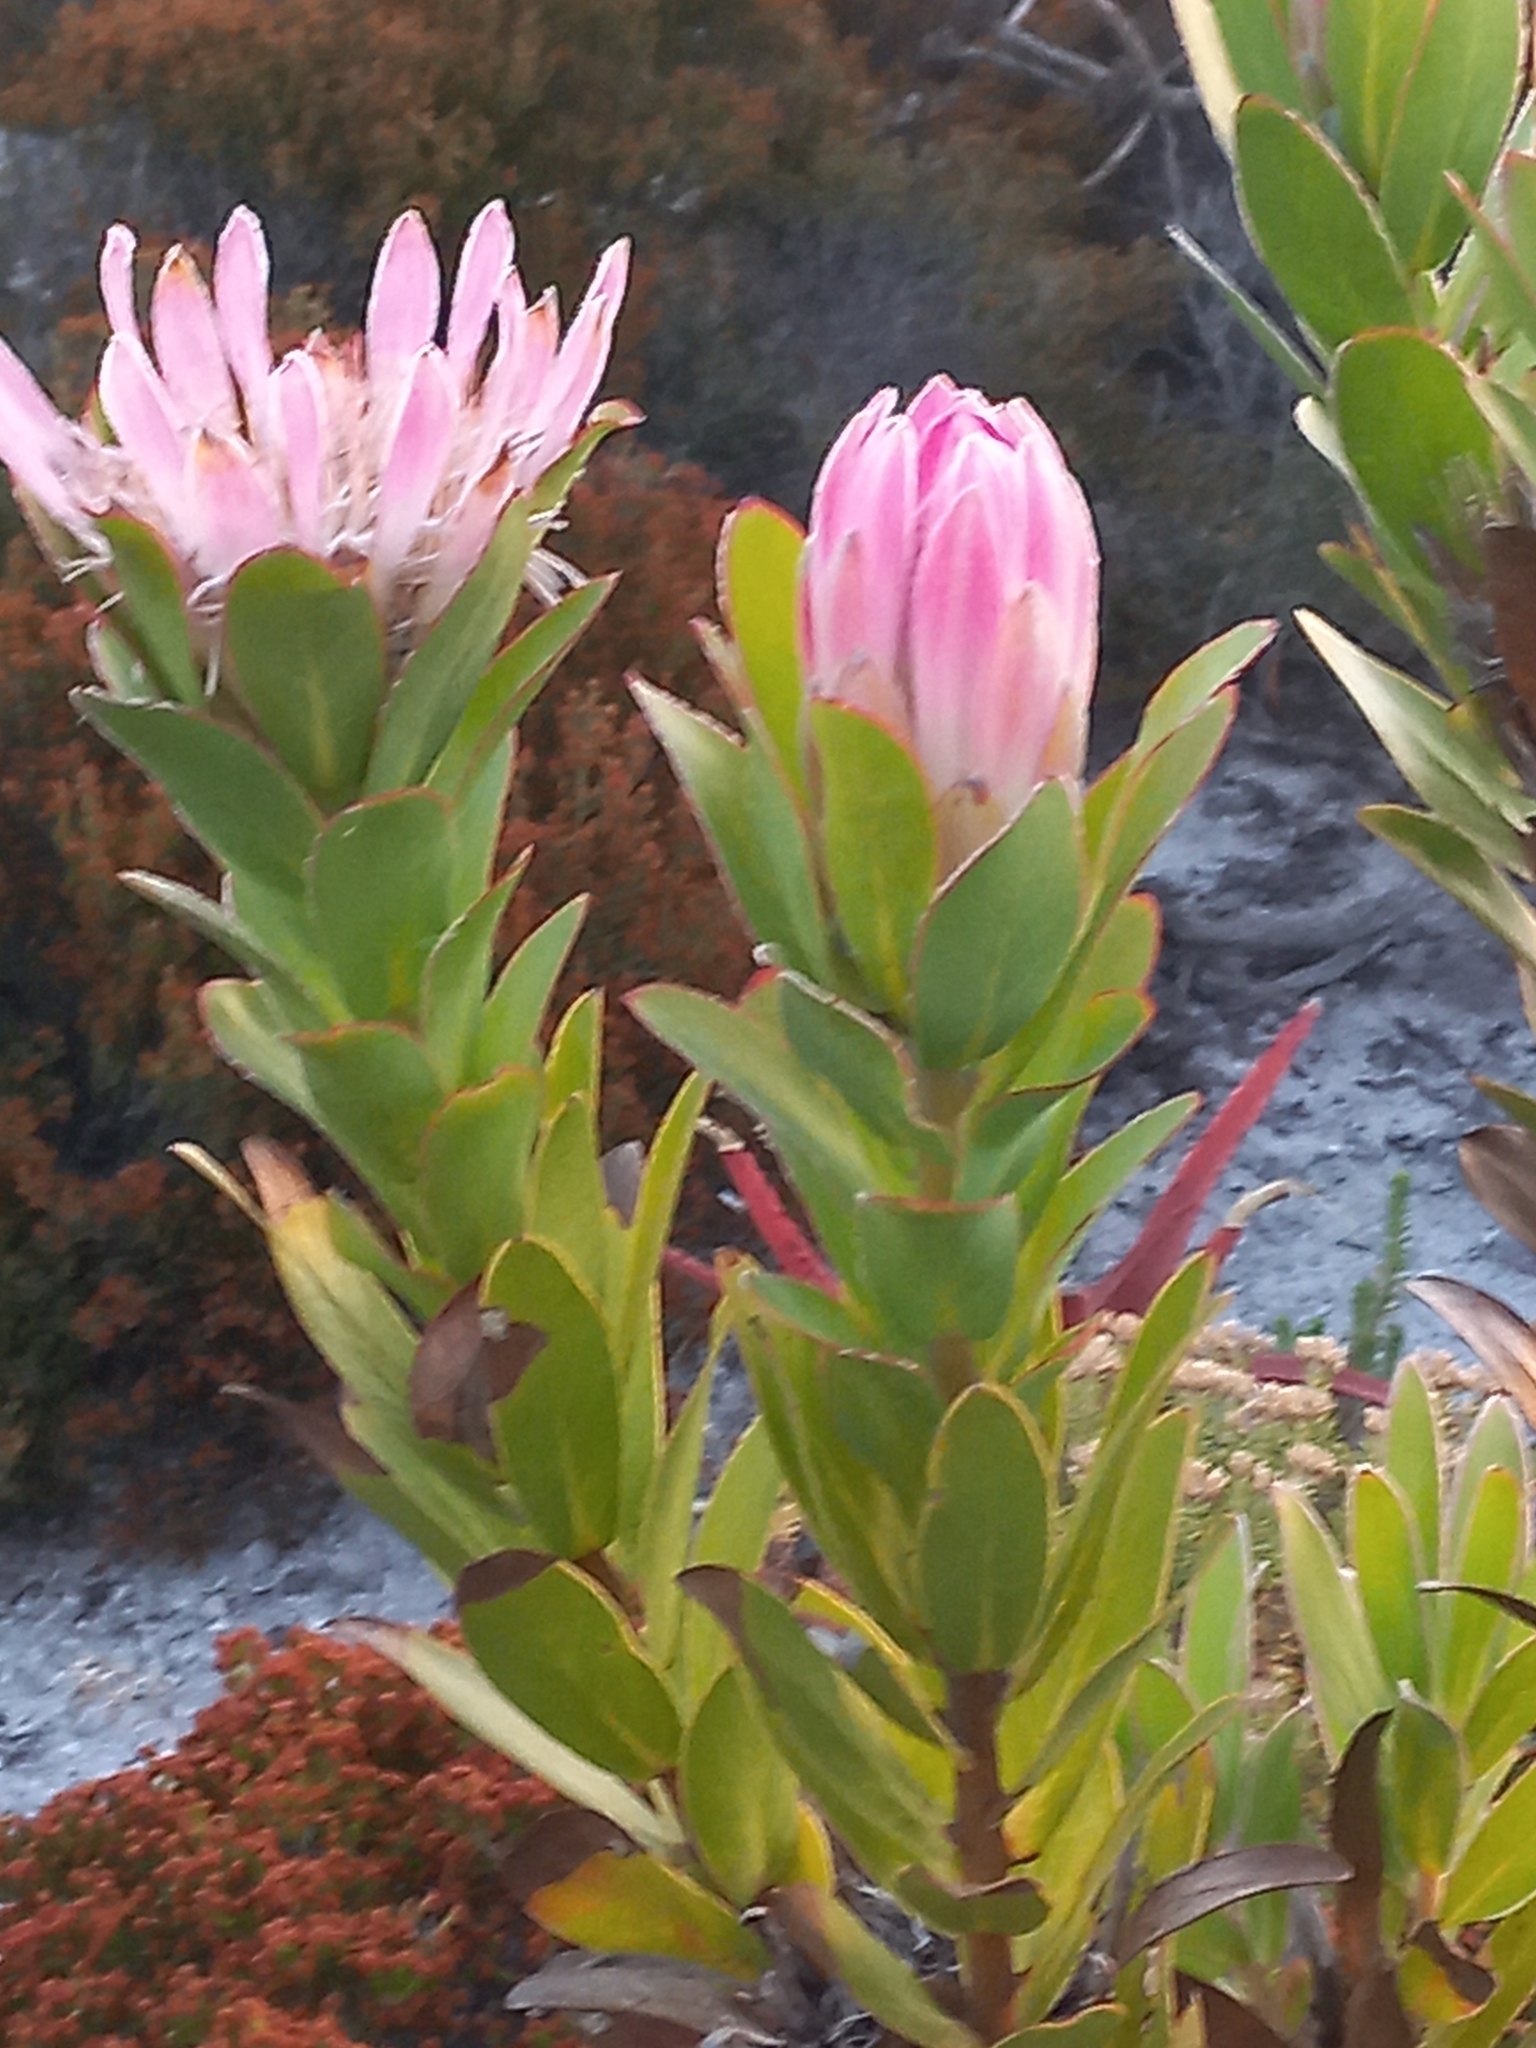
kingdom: Plantae
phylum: Tracheophyta
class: Magnoliopsida
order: Proteales
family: Proteaceae
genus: Protea
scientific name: Protea compacta
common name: Bot river protea
